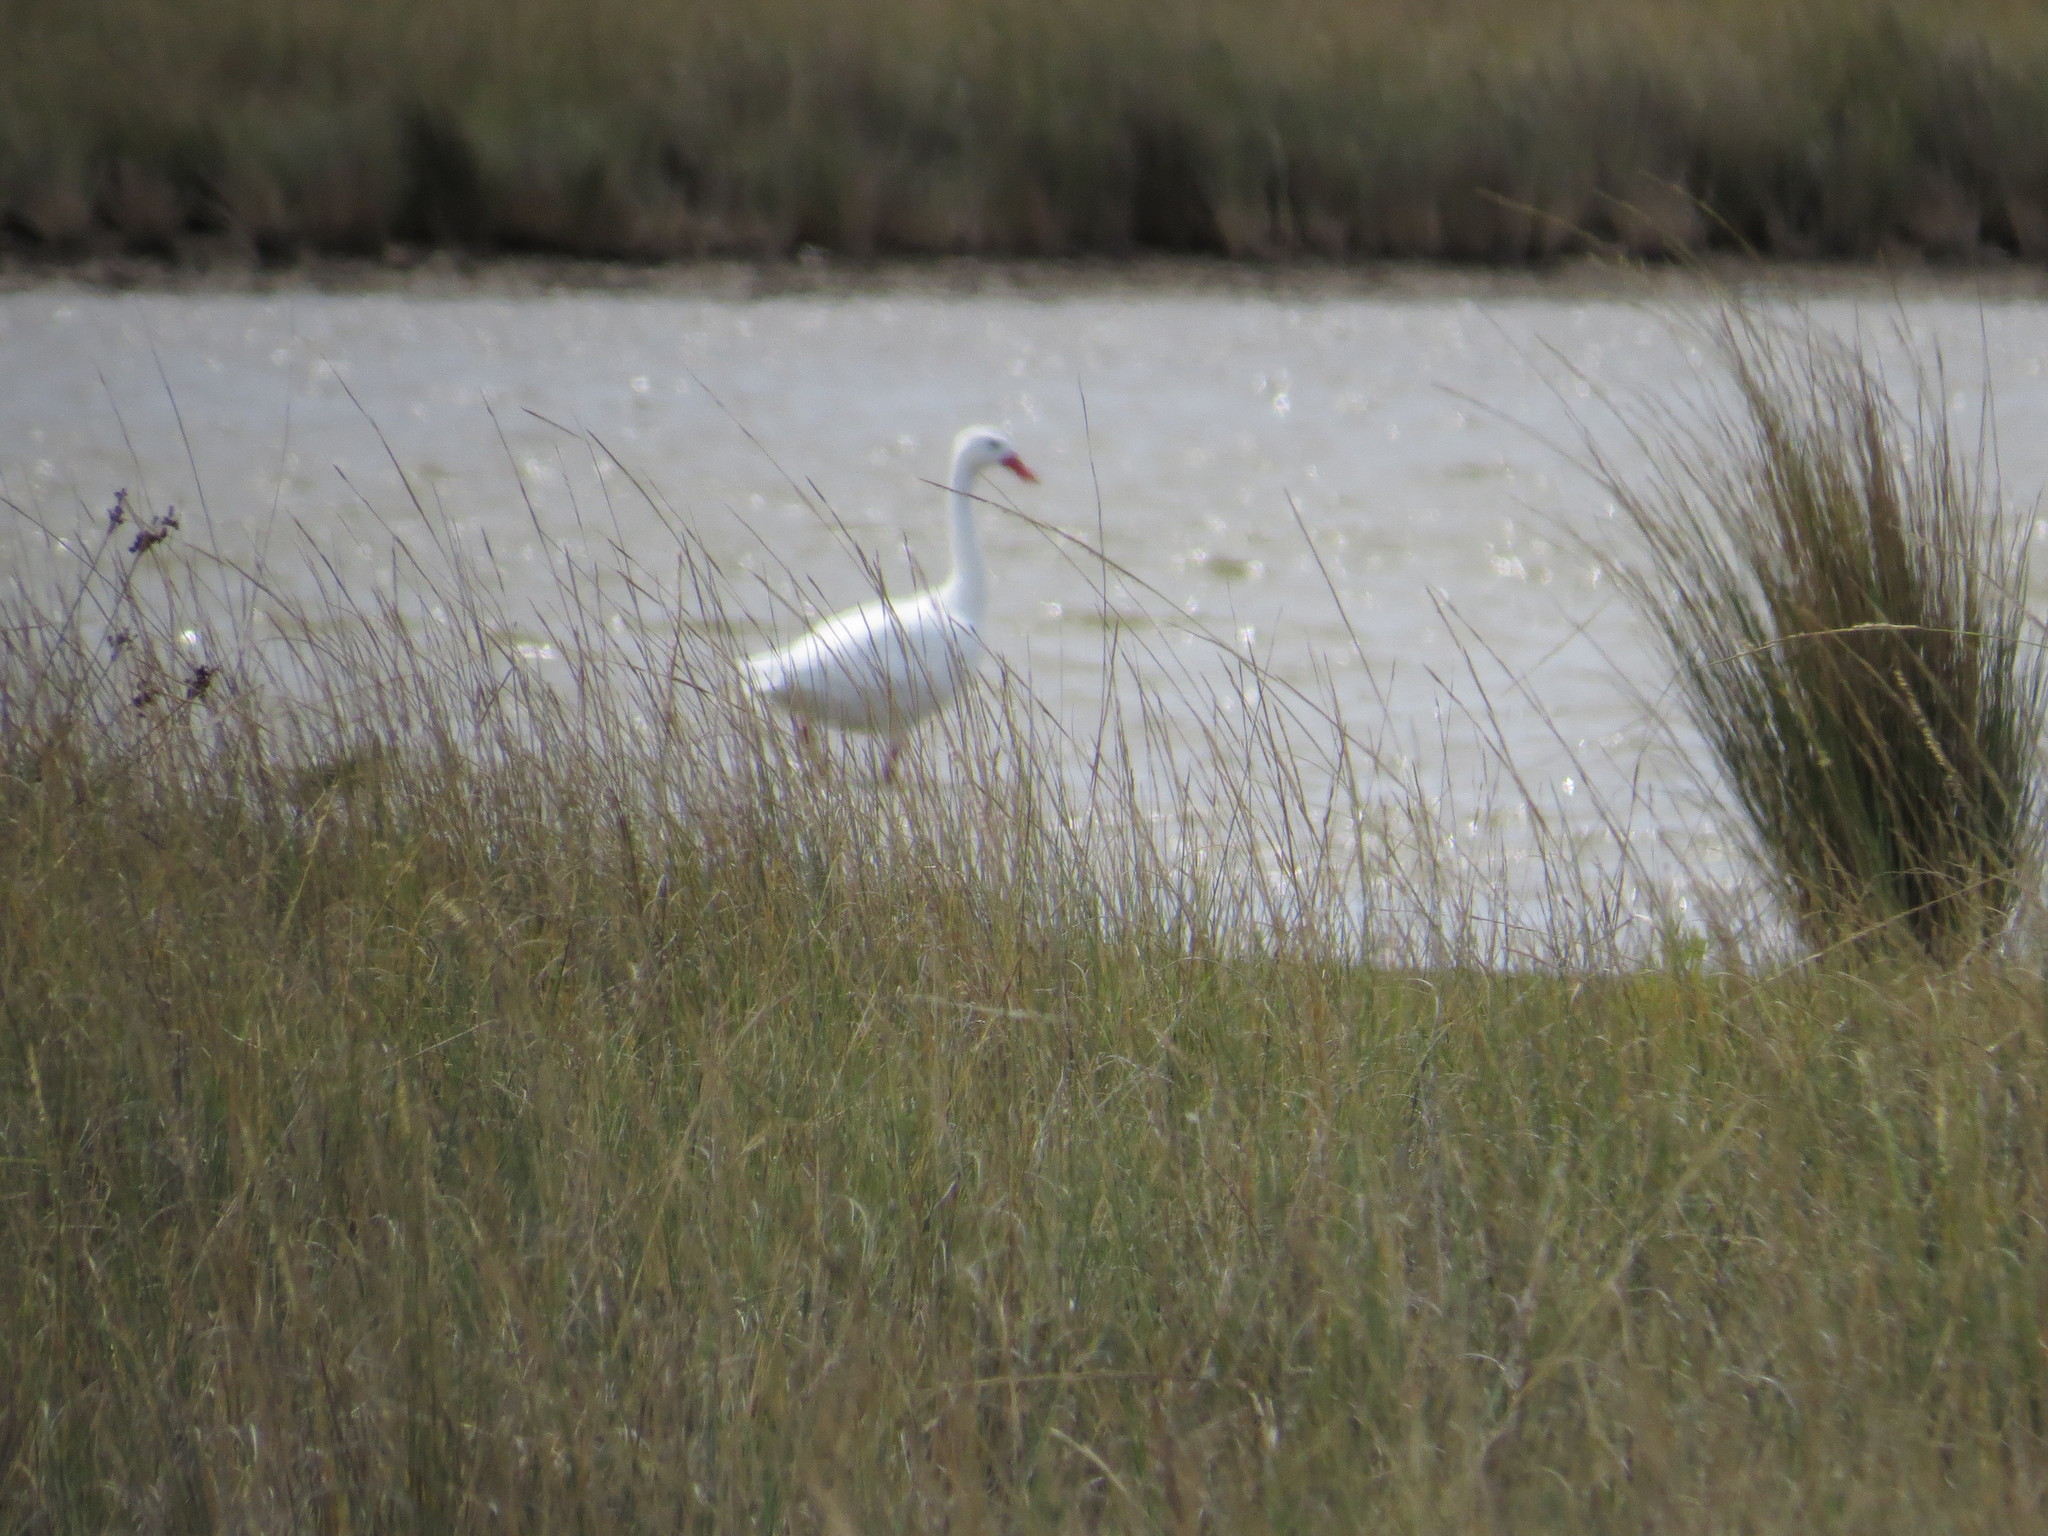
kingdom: Animalia
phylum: Chordata
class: Aves
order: Anseriformes
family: Anatidae
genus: Coscoroba
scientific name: Coscoroba coscoroba
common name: Coscoroba swan
